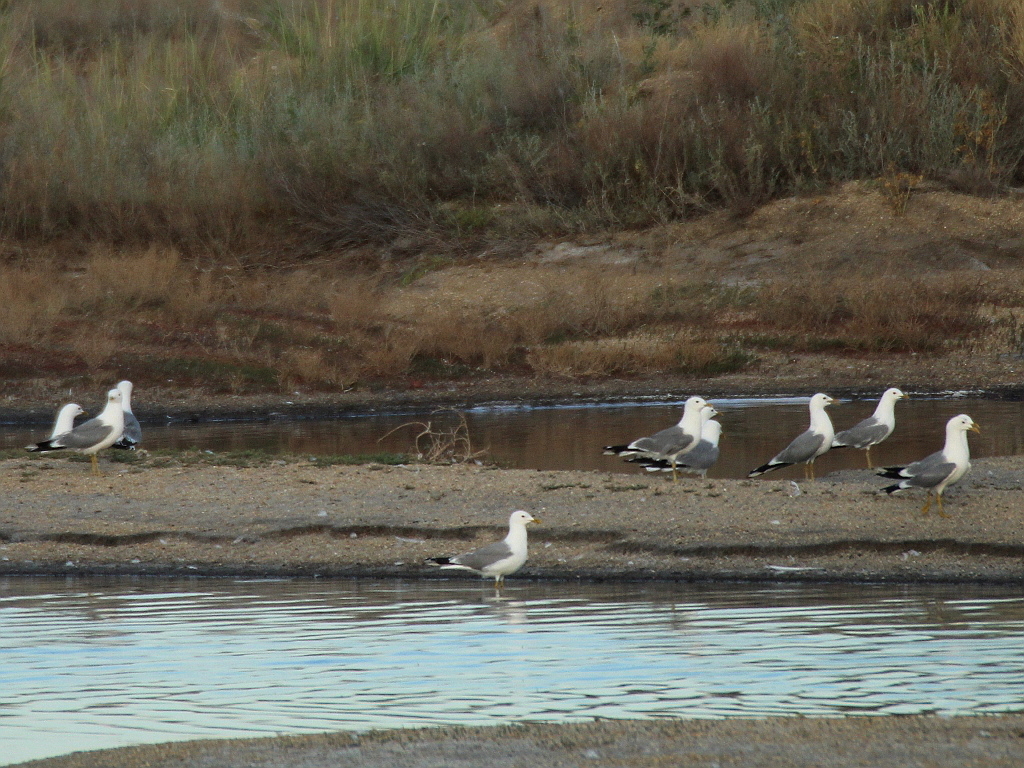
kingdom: Animalia
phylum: Chordata
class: Aves
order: Charadriiformes
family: Laridae
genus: Larus
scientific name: Larus canus
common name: Mew gull
